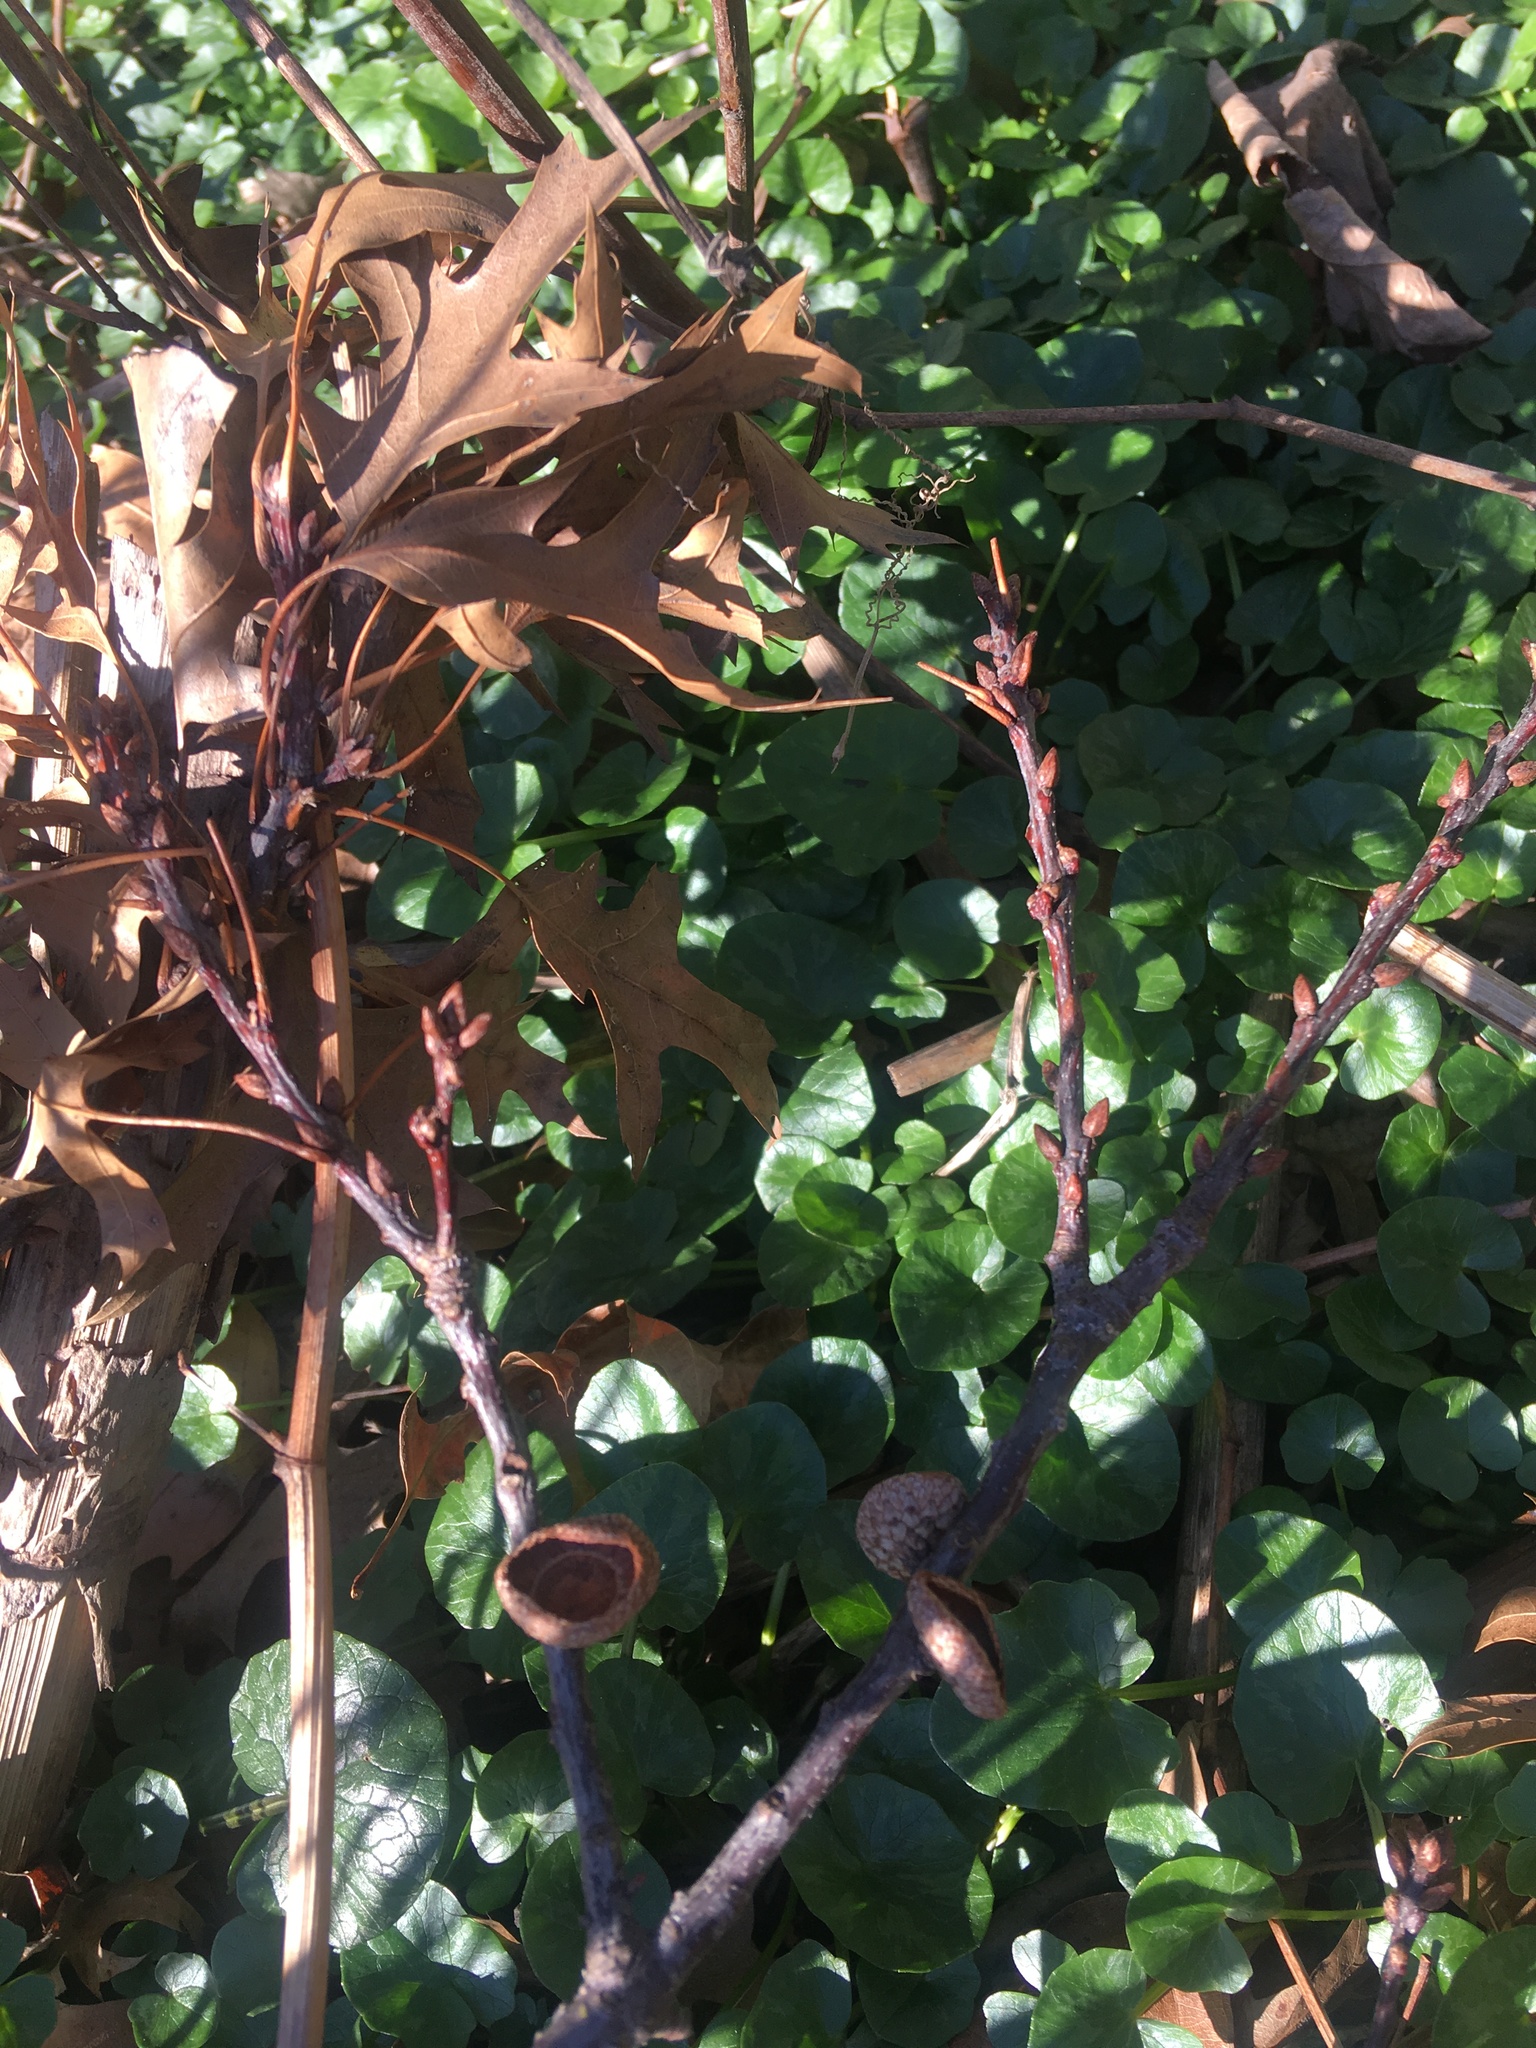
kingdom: Plantae
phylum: Tracheophyta
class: Magnoliopsida
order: Ranunculales
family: Ranunculaceae
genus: Ficaria
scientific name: Ficaria verna
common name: Lesser celandine
